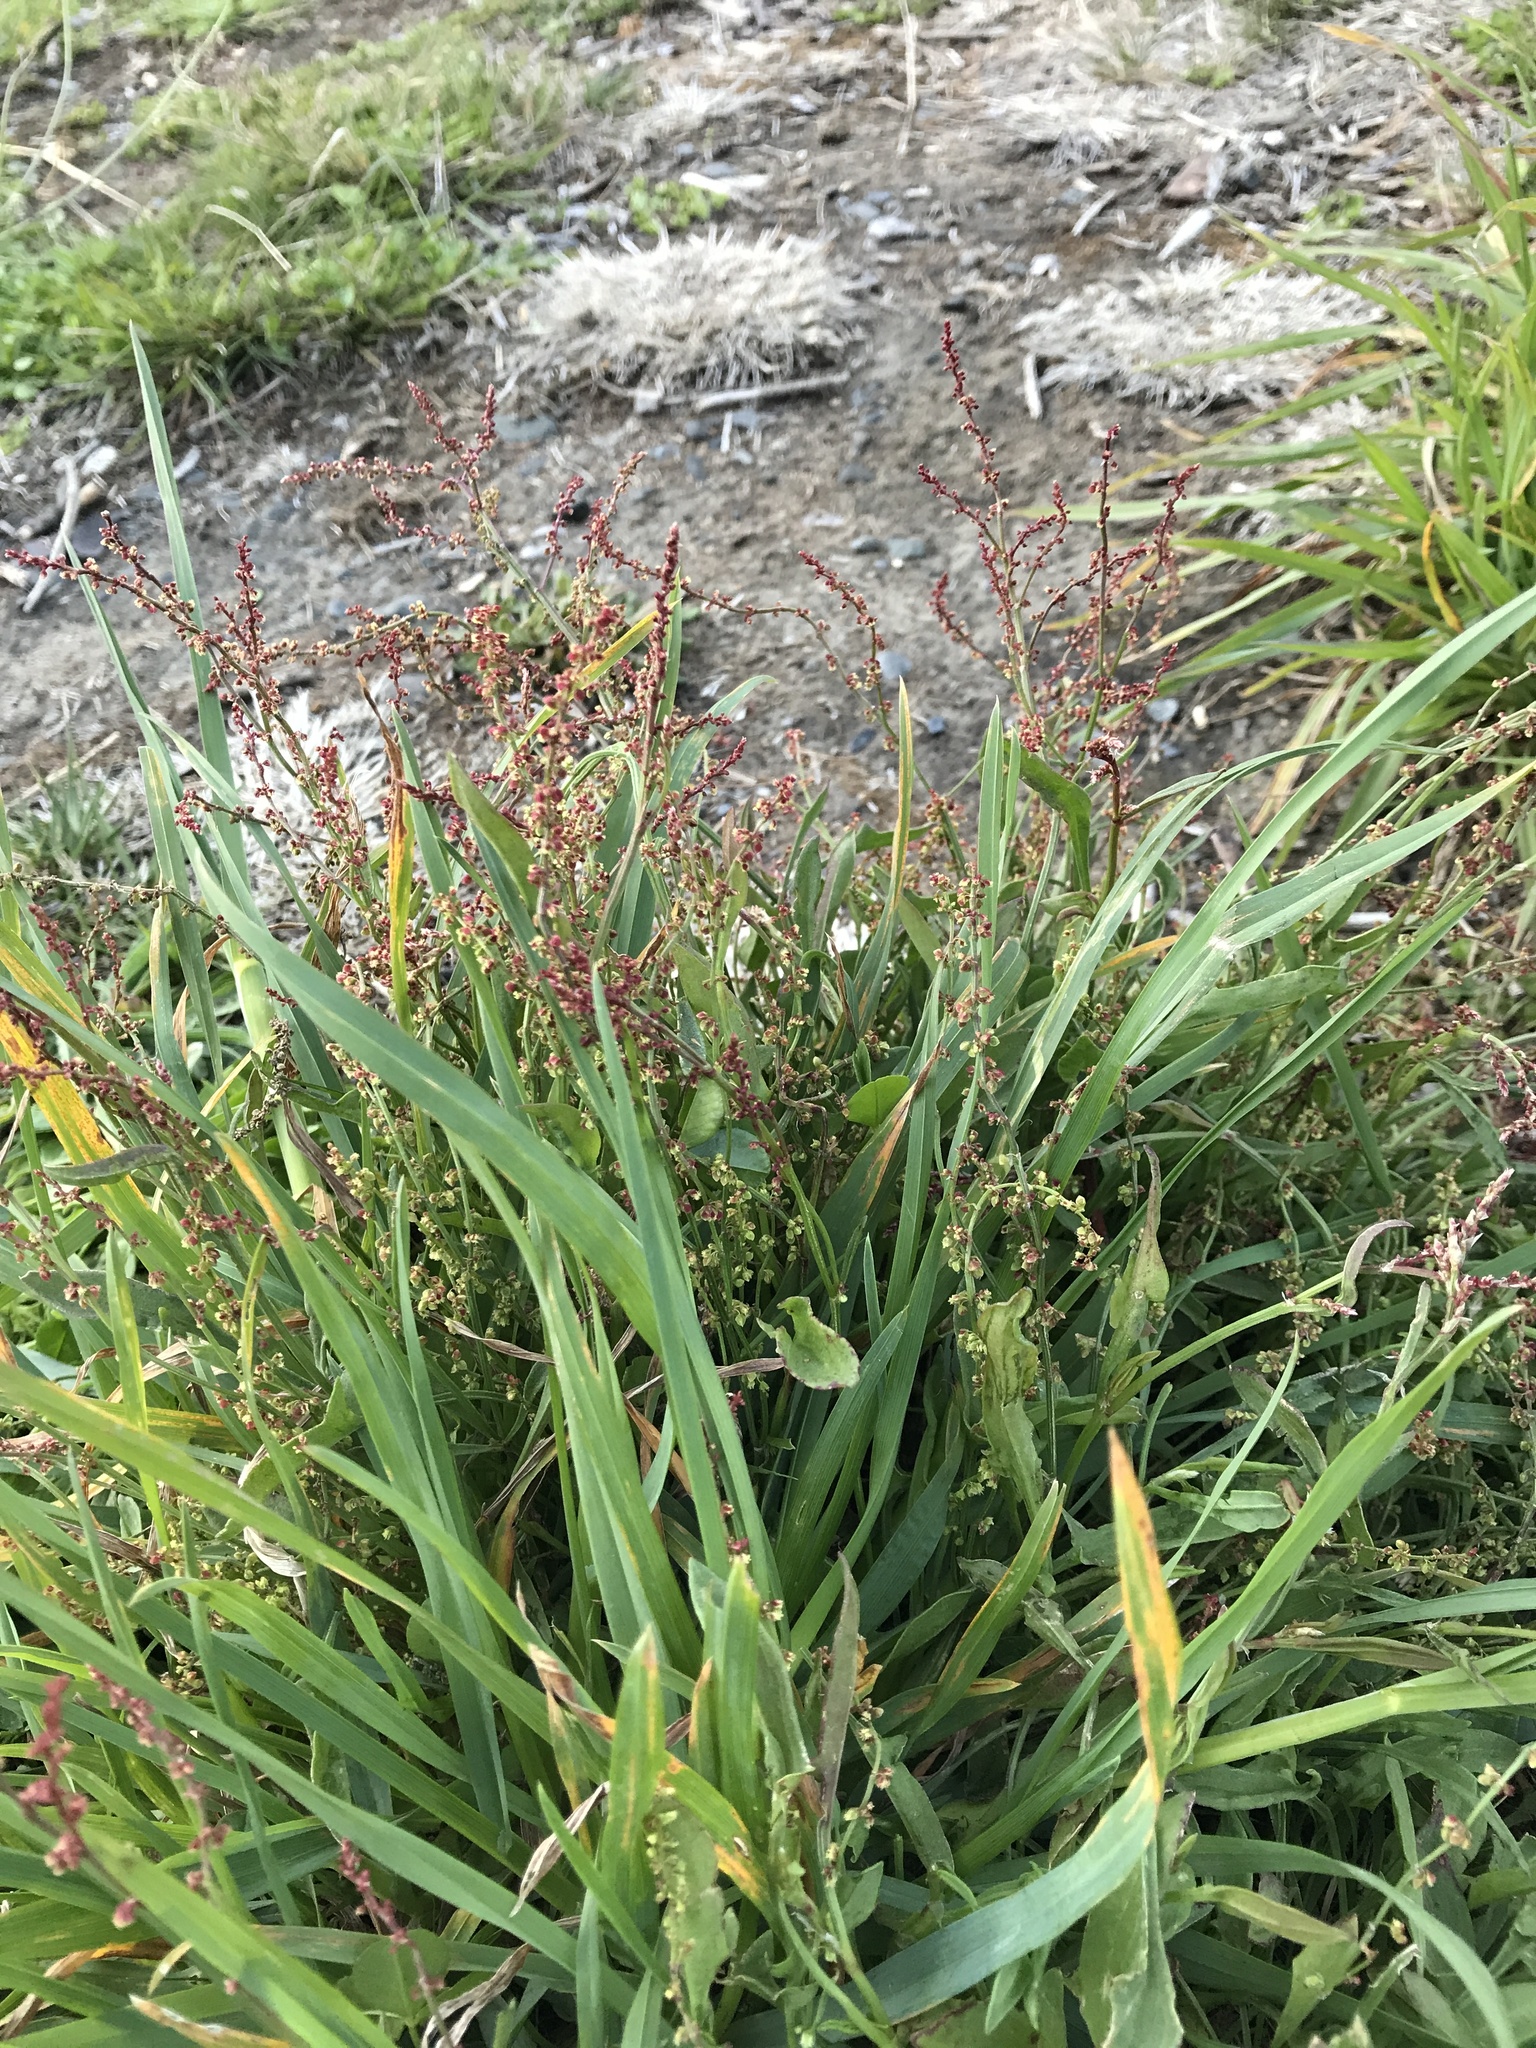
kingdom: Plantae
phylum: Tracheophyta
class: Magnoliopsida
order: Caryophyllales
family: Polygonaceae
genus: Rumex
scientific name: Rumex acetosella
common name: Common sheep sorrel
